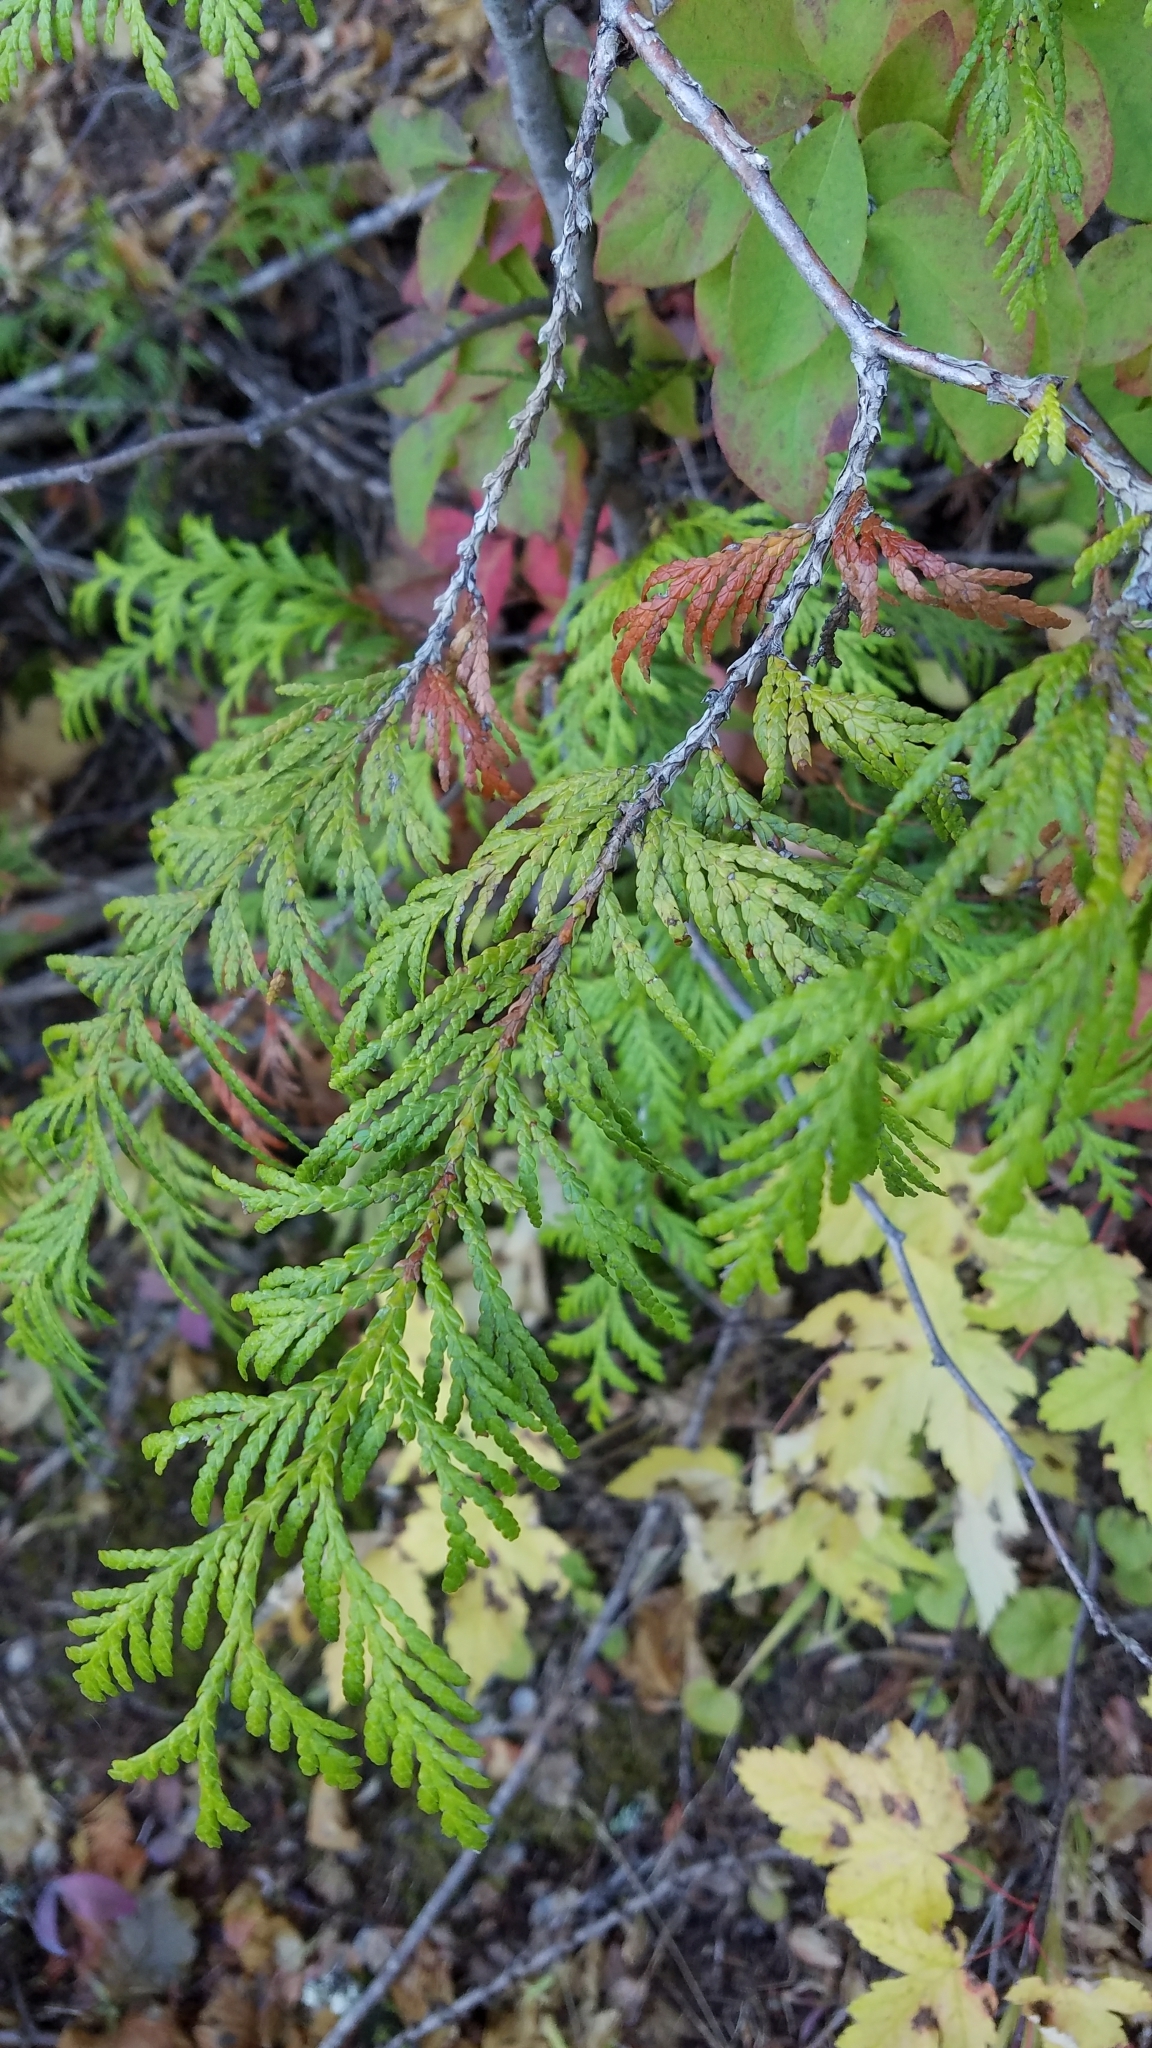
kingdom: Plantae
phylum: Tracheophyta
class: Pinopsida
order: Pinales
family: Cupressaceae
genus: Thuja
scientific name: Thuja plicata
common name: Western red-cedar
